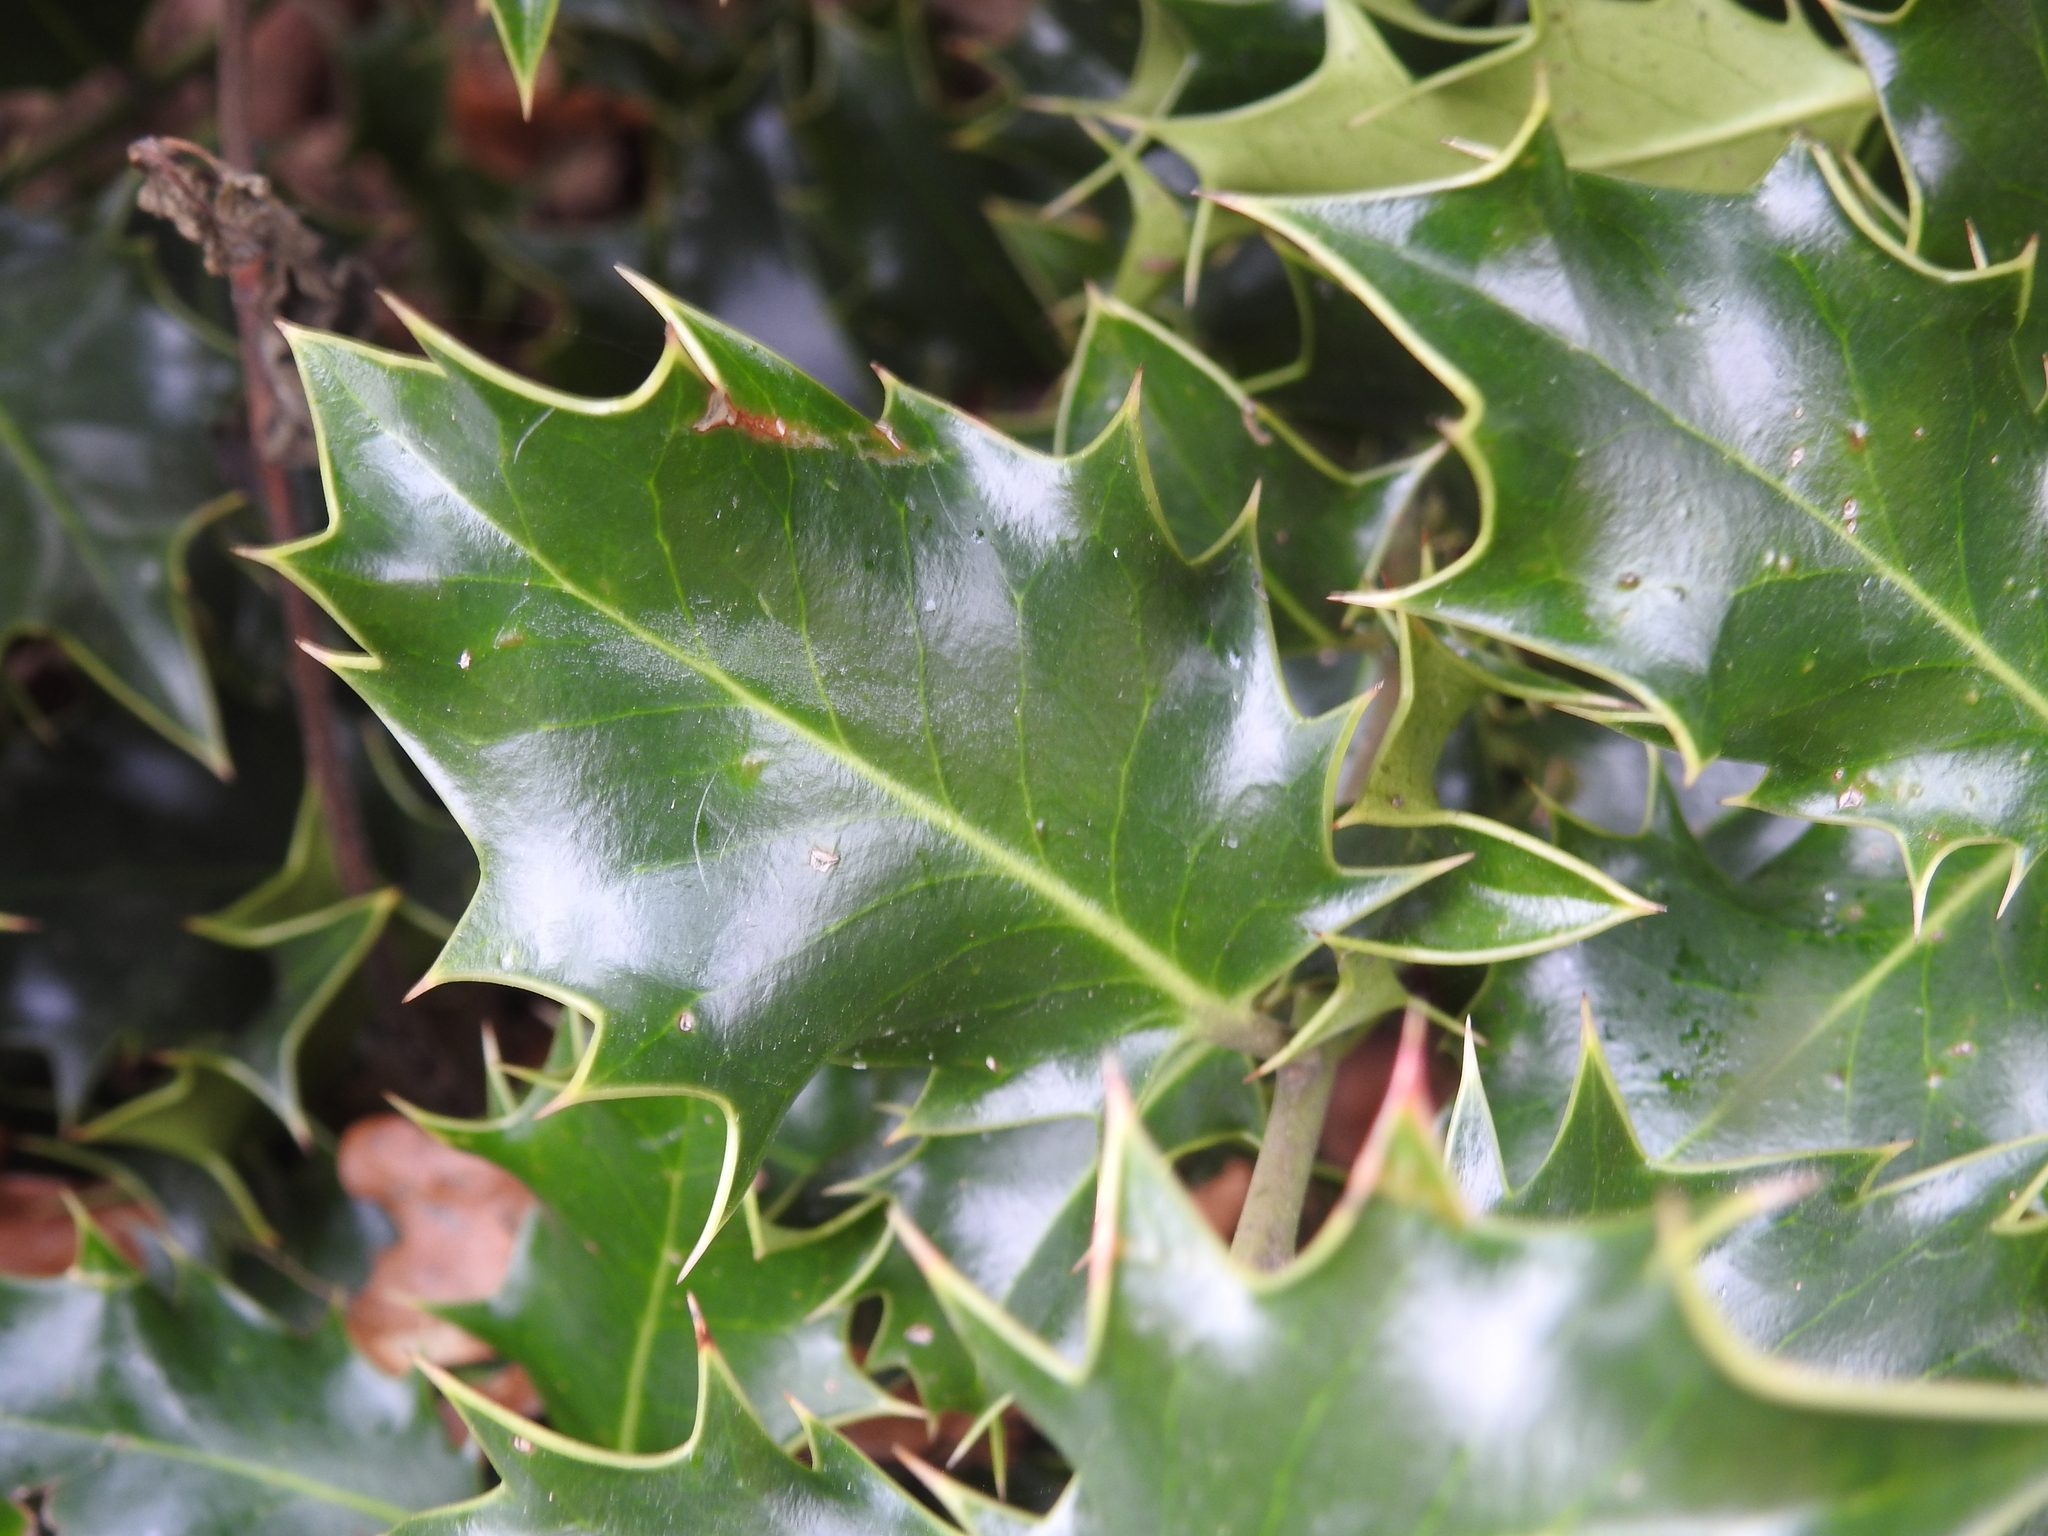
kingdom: Plantae
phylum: Tracheophyta
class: Magnoliopsida
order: Aquifoliales
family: Aquifoliaceae
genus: Ilex
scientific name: Ilex aquifolium
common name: English holly
